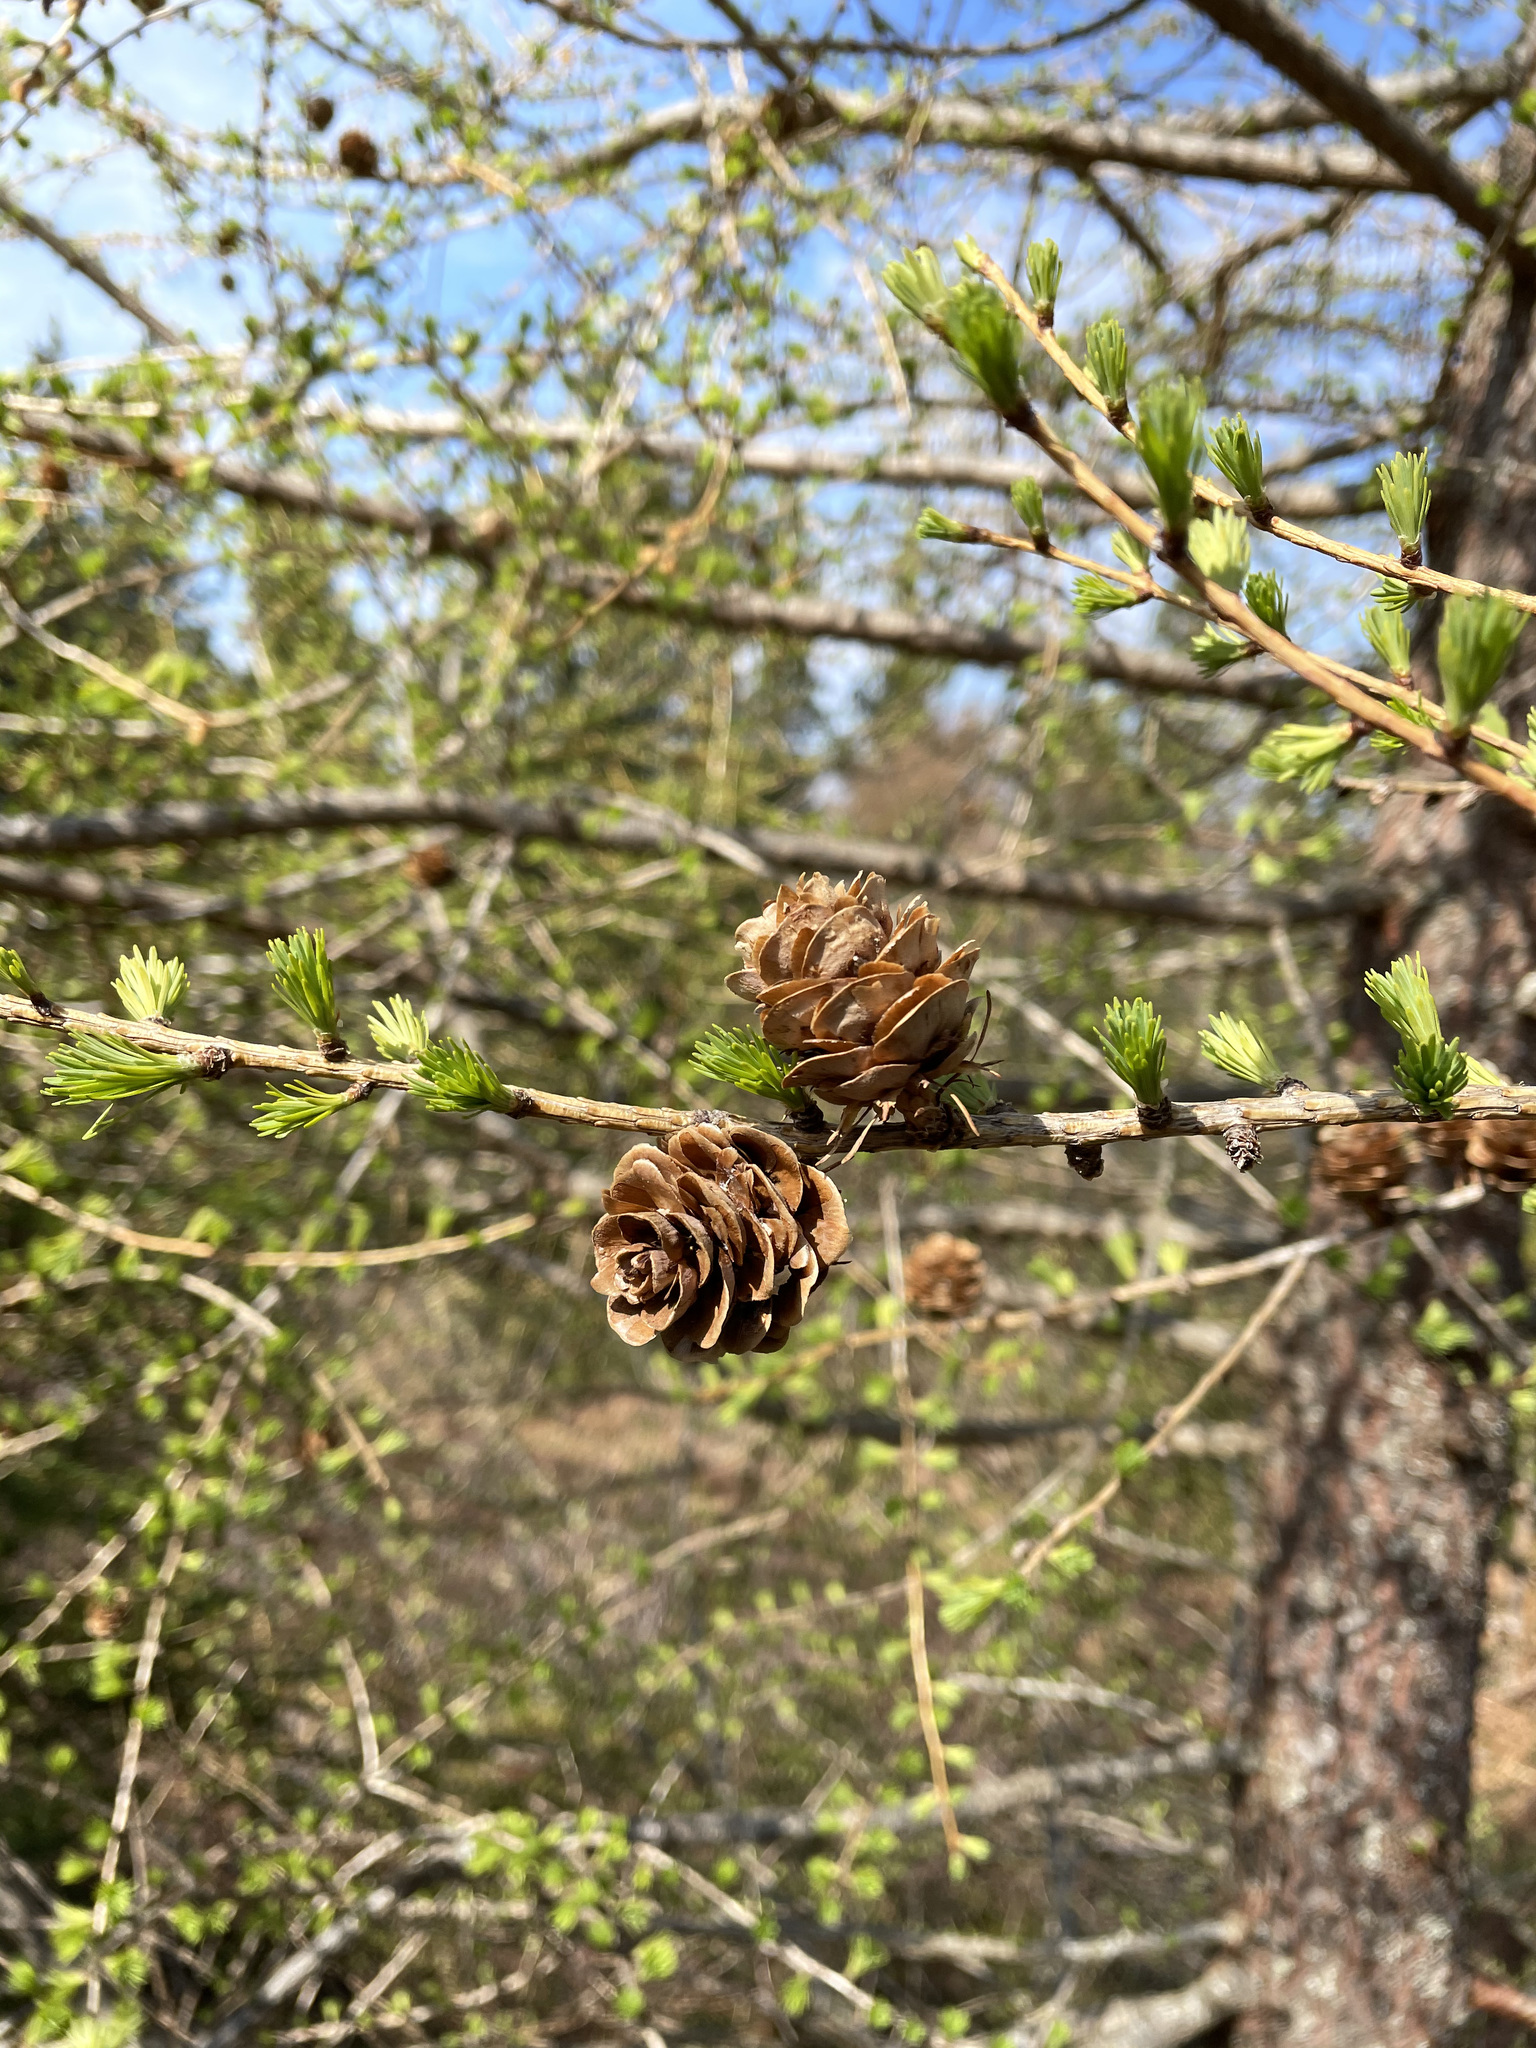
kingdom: Plantae
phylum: Tracheophyta
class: Pinopsida
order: Pinales
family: Pinaceae
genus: Larix
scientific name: Larix decidua
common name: European larch
